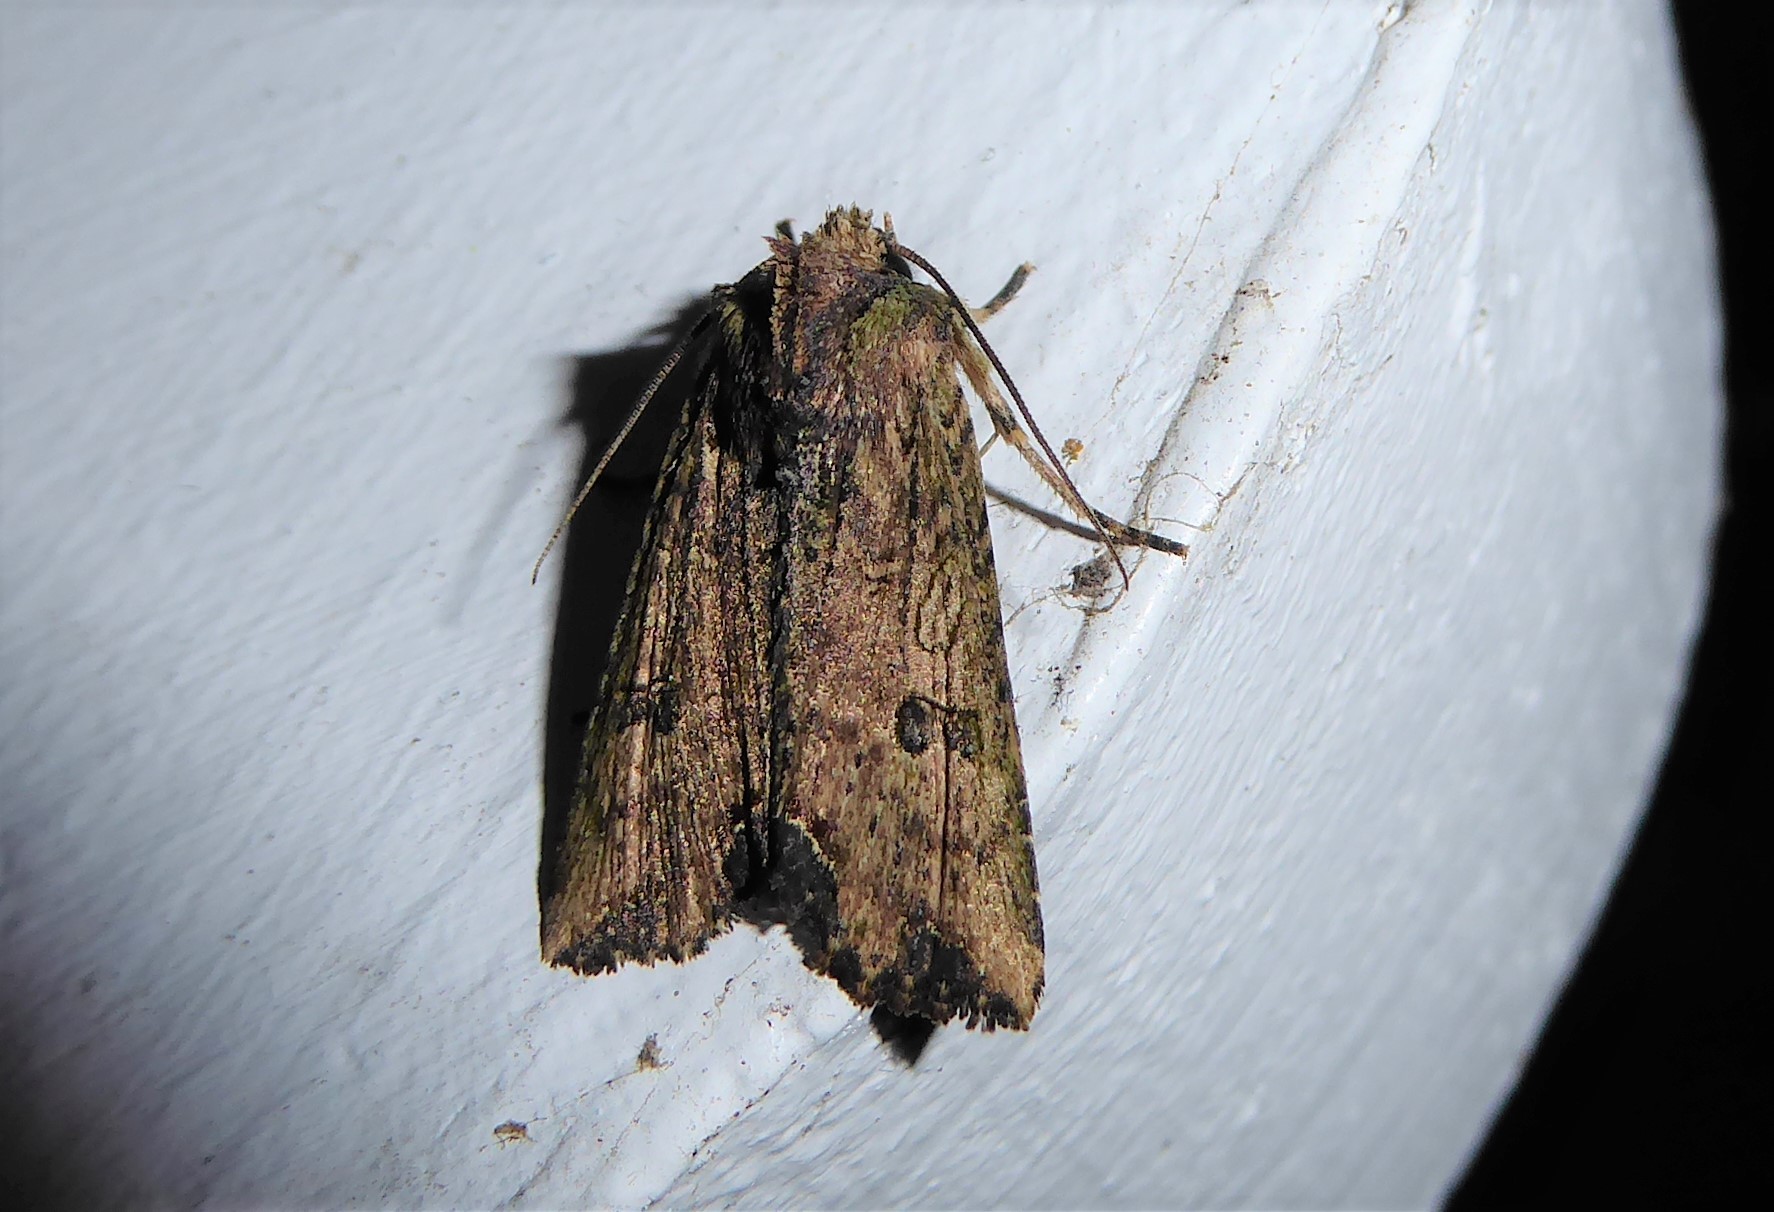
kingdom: Animalia
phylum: Arthropoda
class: Insecta
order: Lepidoptera
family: Noctuidae
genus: Meterana
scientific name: Meterana coeleno
